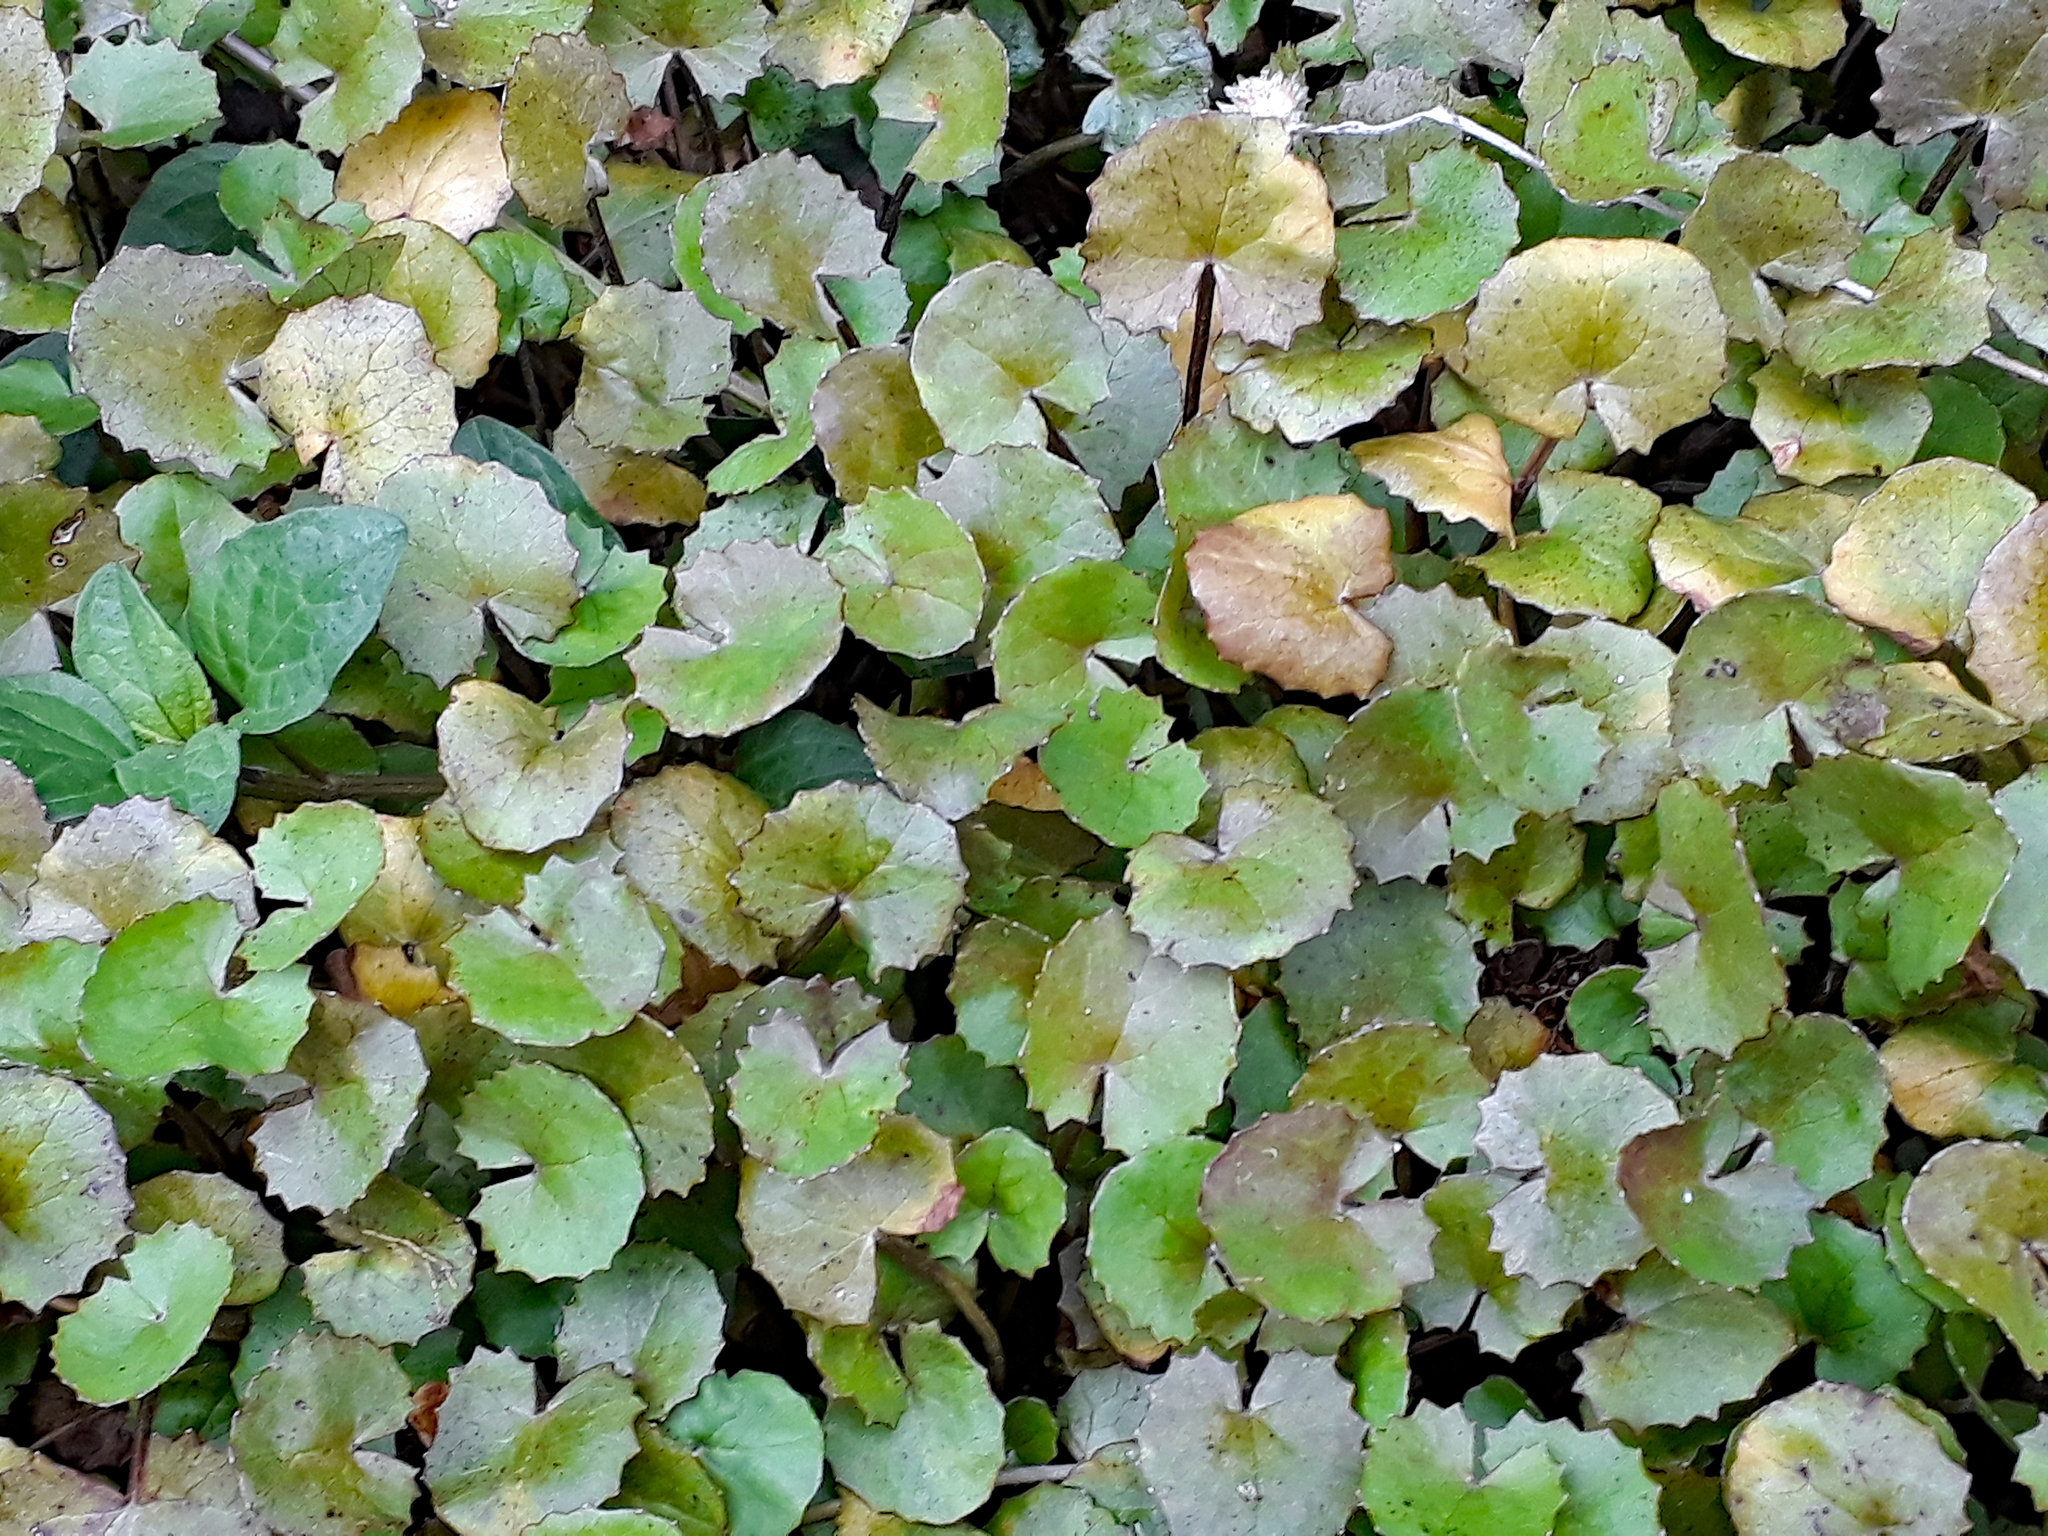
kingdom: Plantae
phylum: Tracheophyta
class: Magnoliopsida
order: Apiales
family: Apiaceae
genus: Centella
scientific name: Centella uniflora
